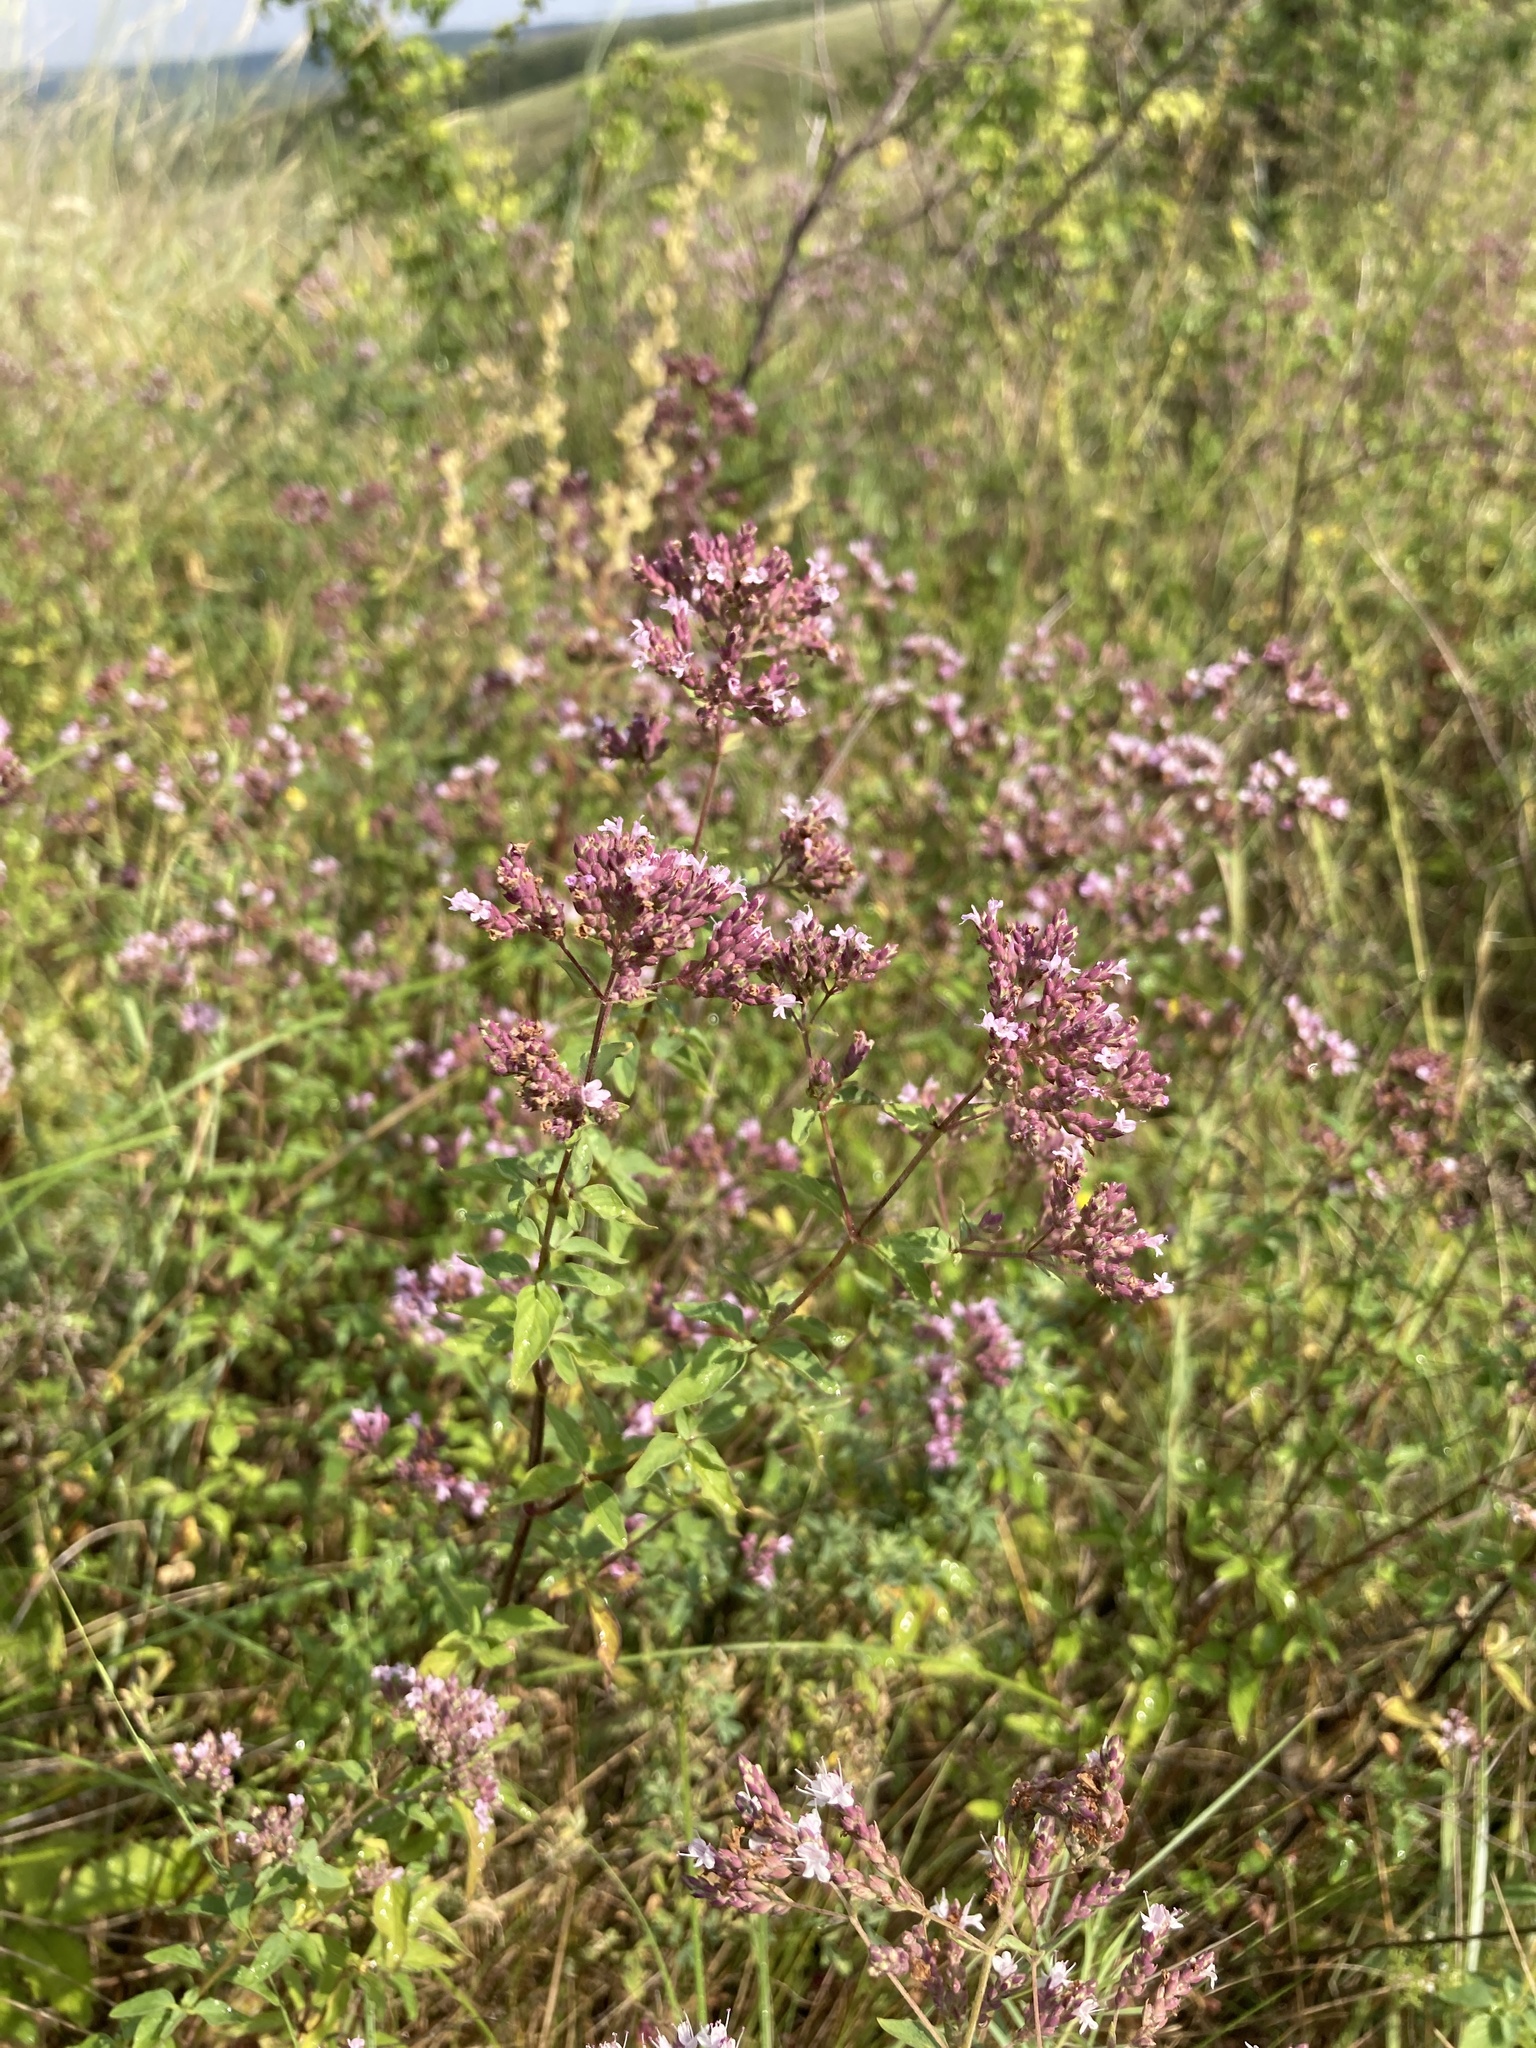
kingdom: Plantae
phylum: Tracheophyta
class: Magnoliopsida
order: Lamiales
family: Lamiaceae
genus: Origanum
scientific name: Origanum vulgare
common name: Wild marjoram
